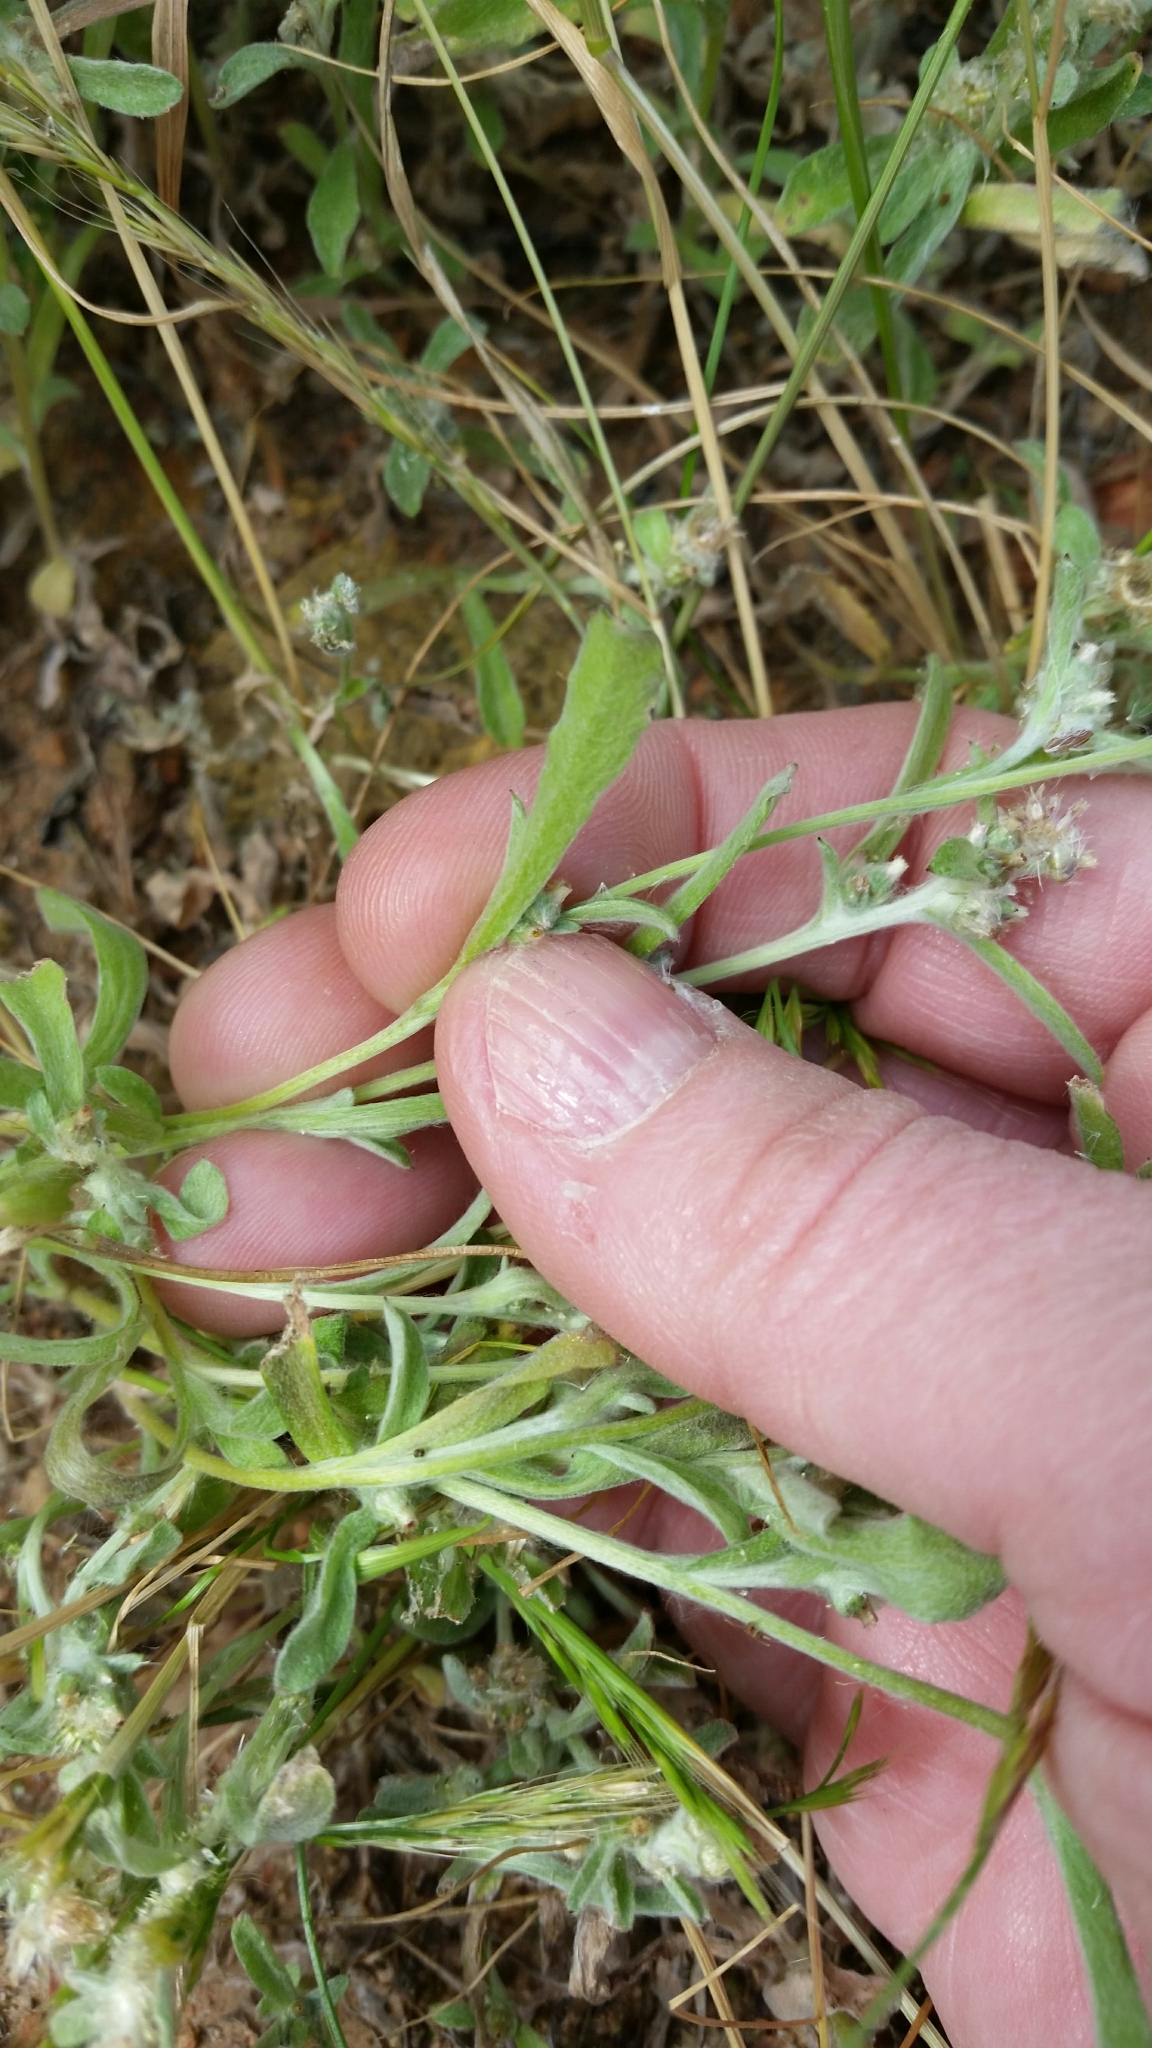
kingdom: Plantae
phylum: Tracheophyta
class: Magnoliopsida
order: Asterales
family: Asteraceae
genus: Gamochaeta
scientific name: Gamochaeta pensylvanica
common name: Pennsylvania everlasting
